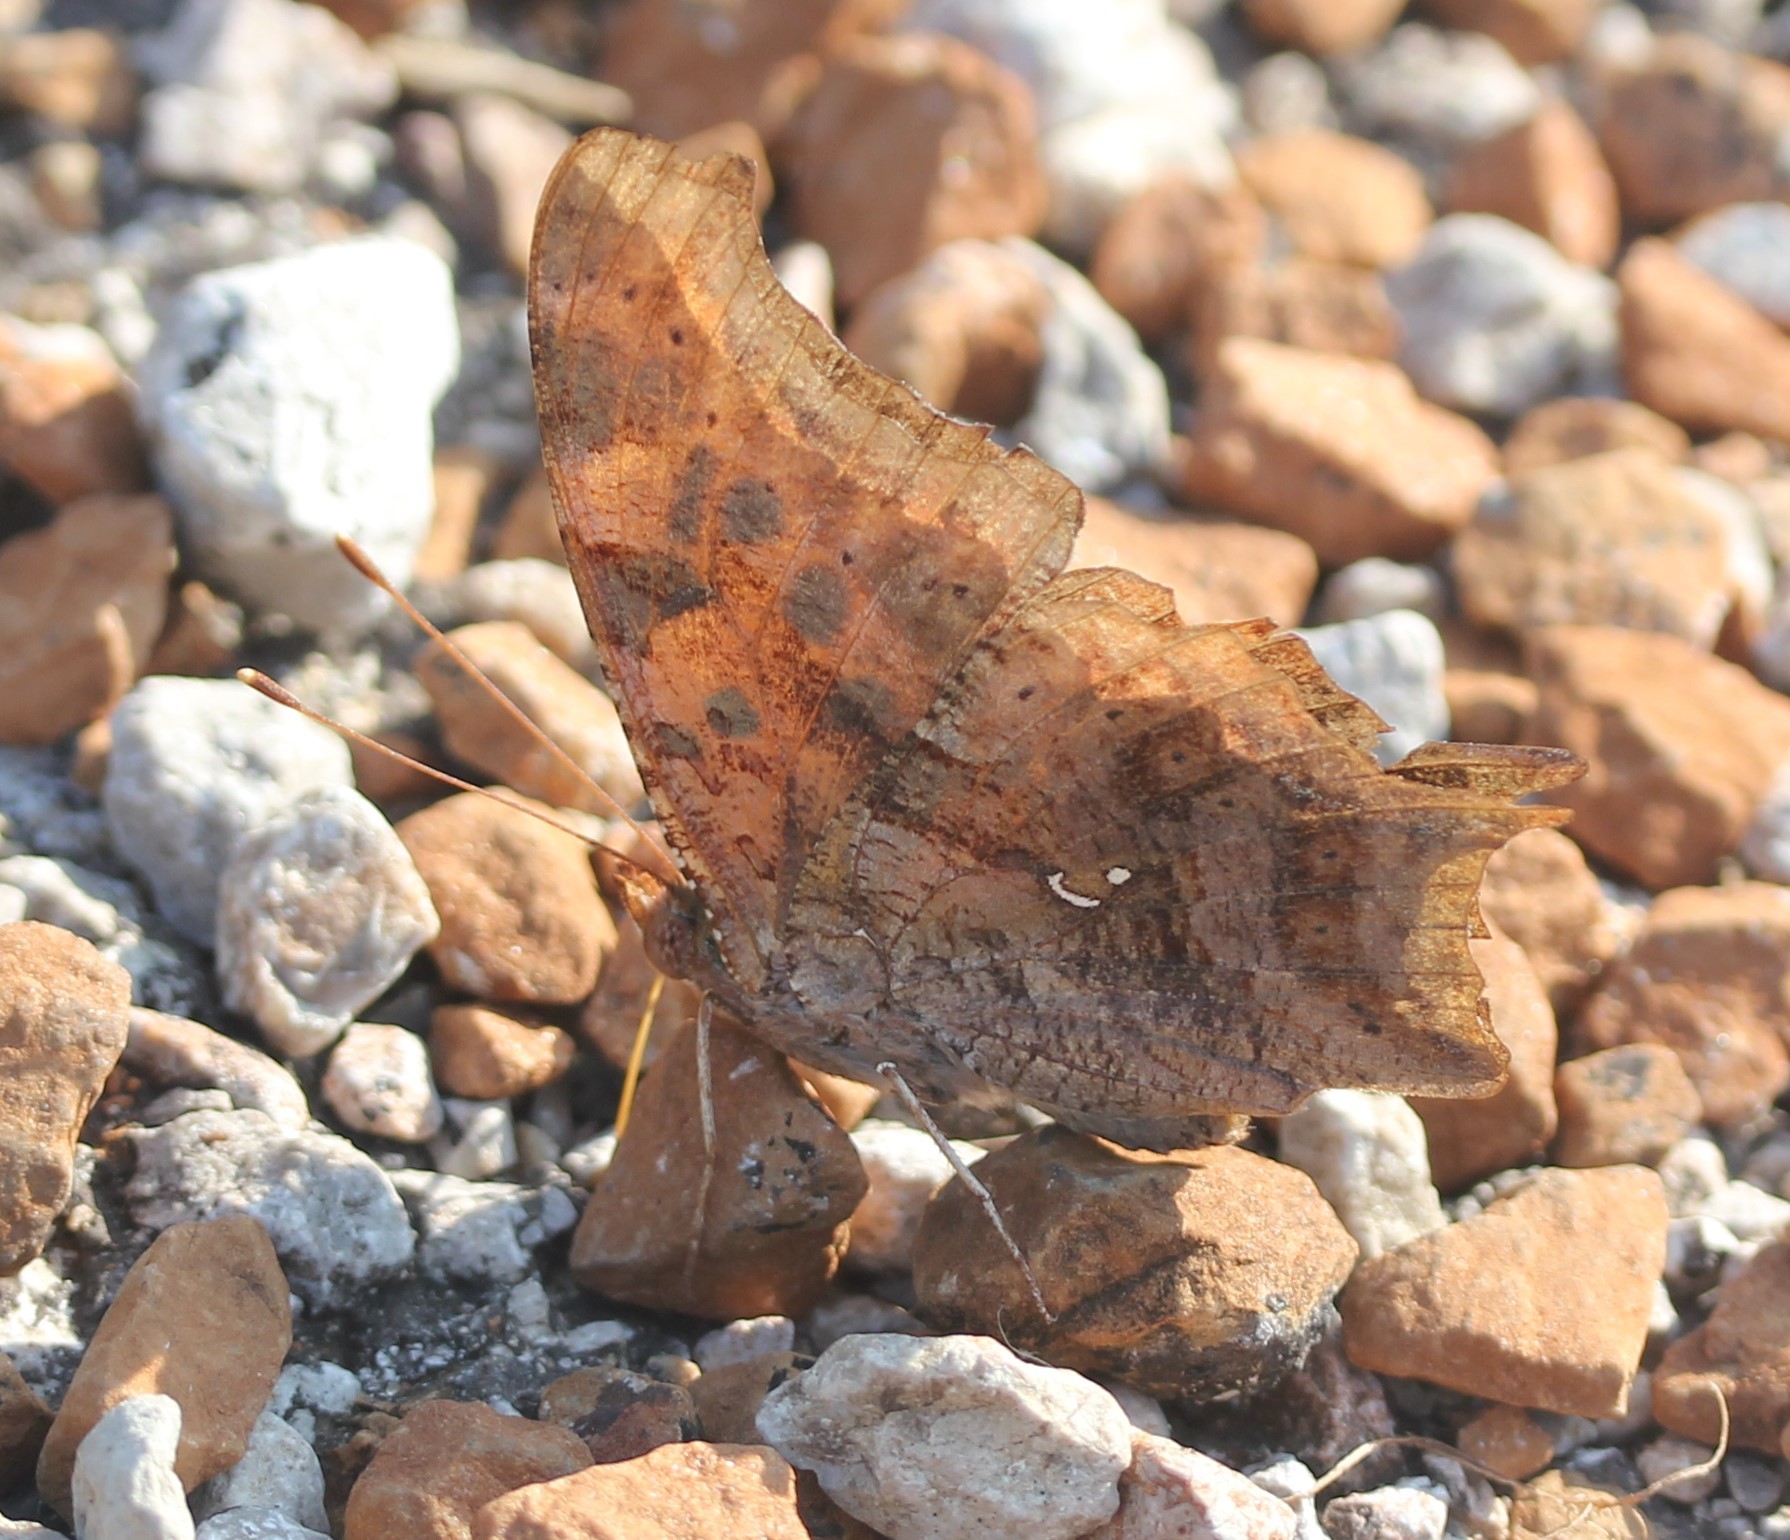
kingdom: Animalia
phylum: Arthropoda
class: Insecta
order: Lepidoptera
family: Nymphalidae
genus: Polygonia
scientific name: Polygonia interrogationis
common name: Question mark
